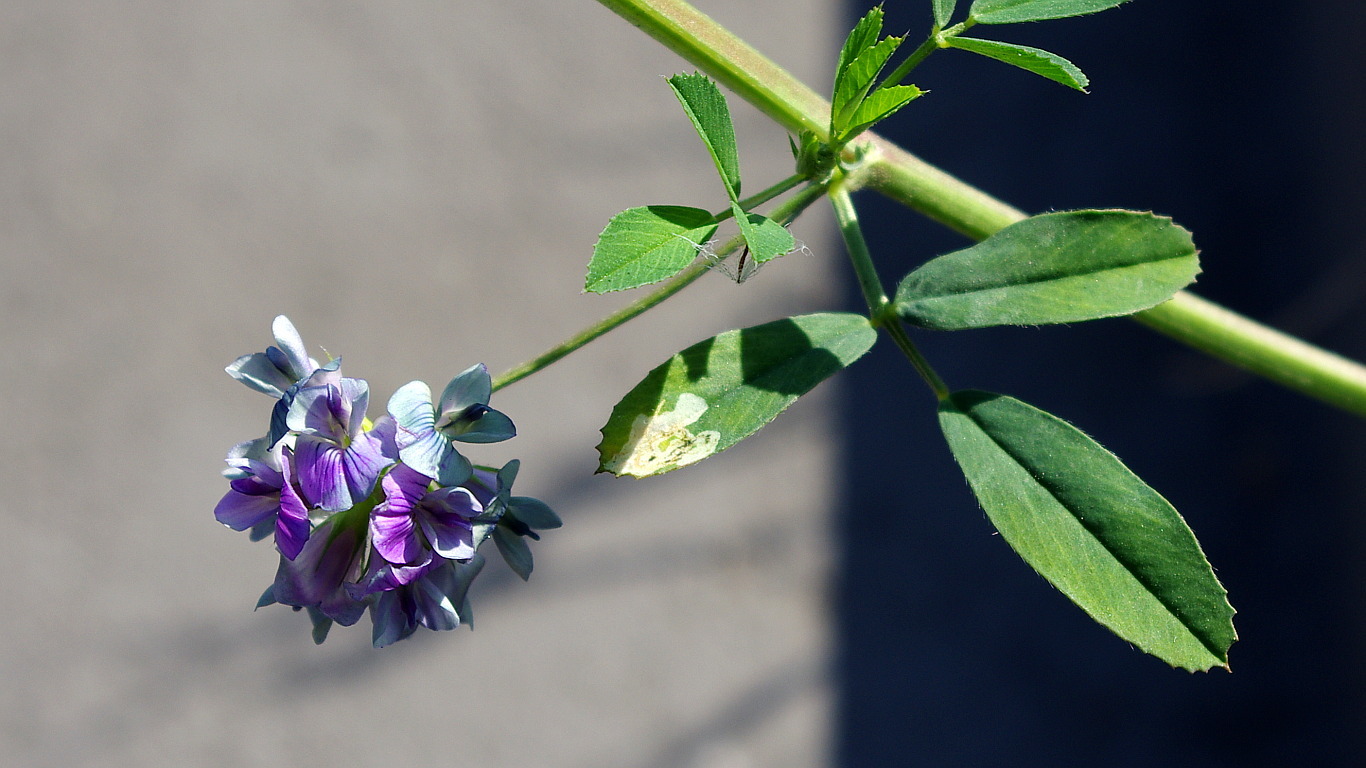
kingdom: Plantae
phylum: Tracheophyta
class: Magnoliopsida
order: Fabales
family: Fabaceae
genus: Medicago
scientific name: Medicago sativa
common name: Alfalfa
